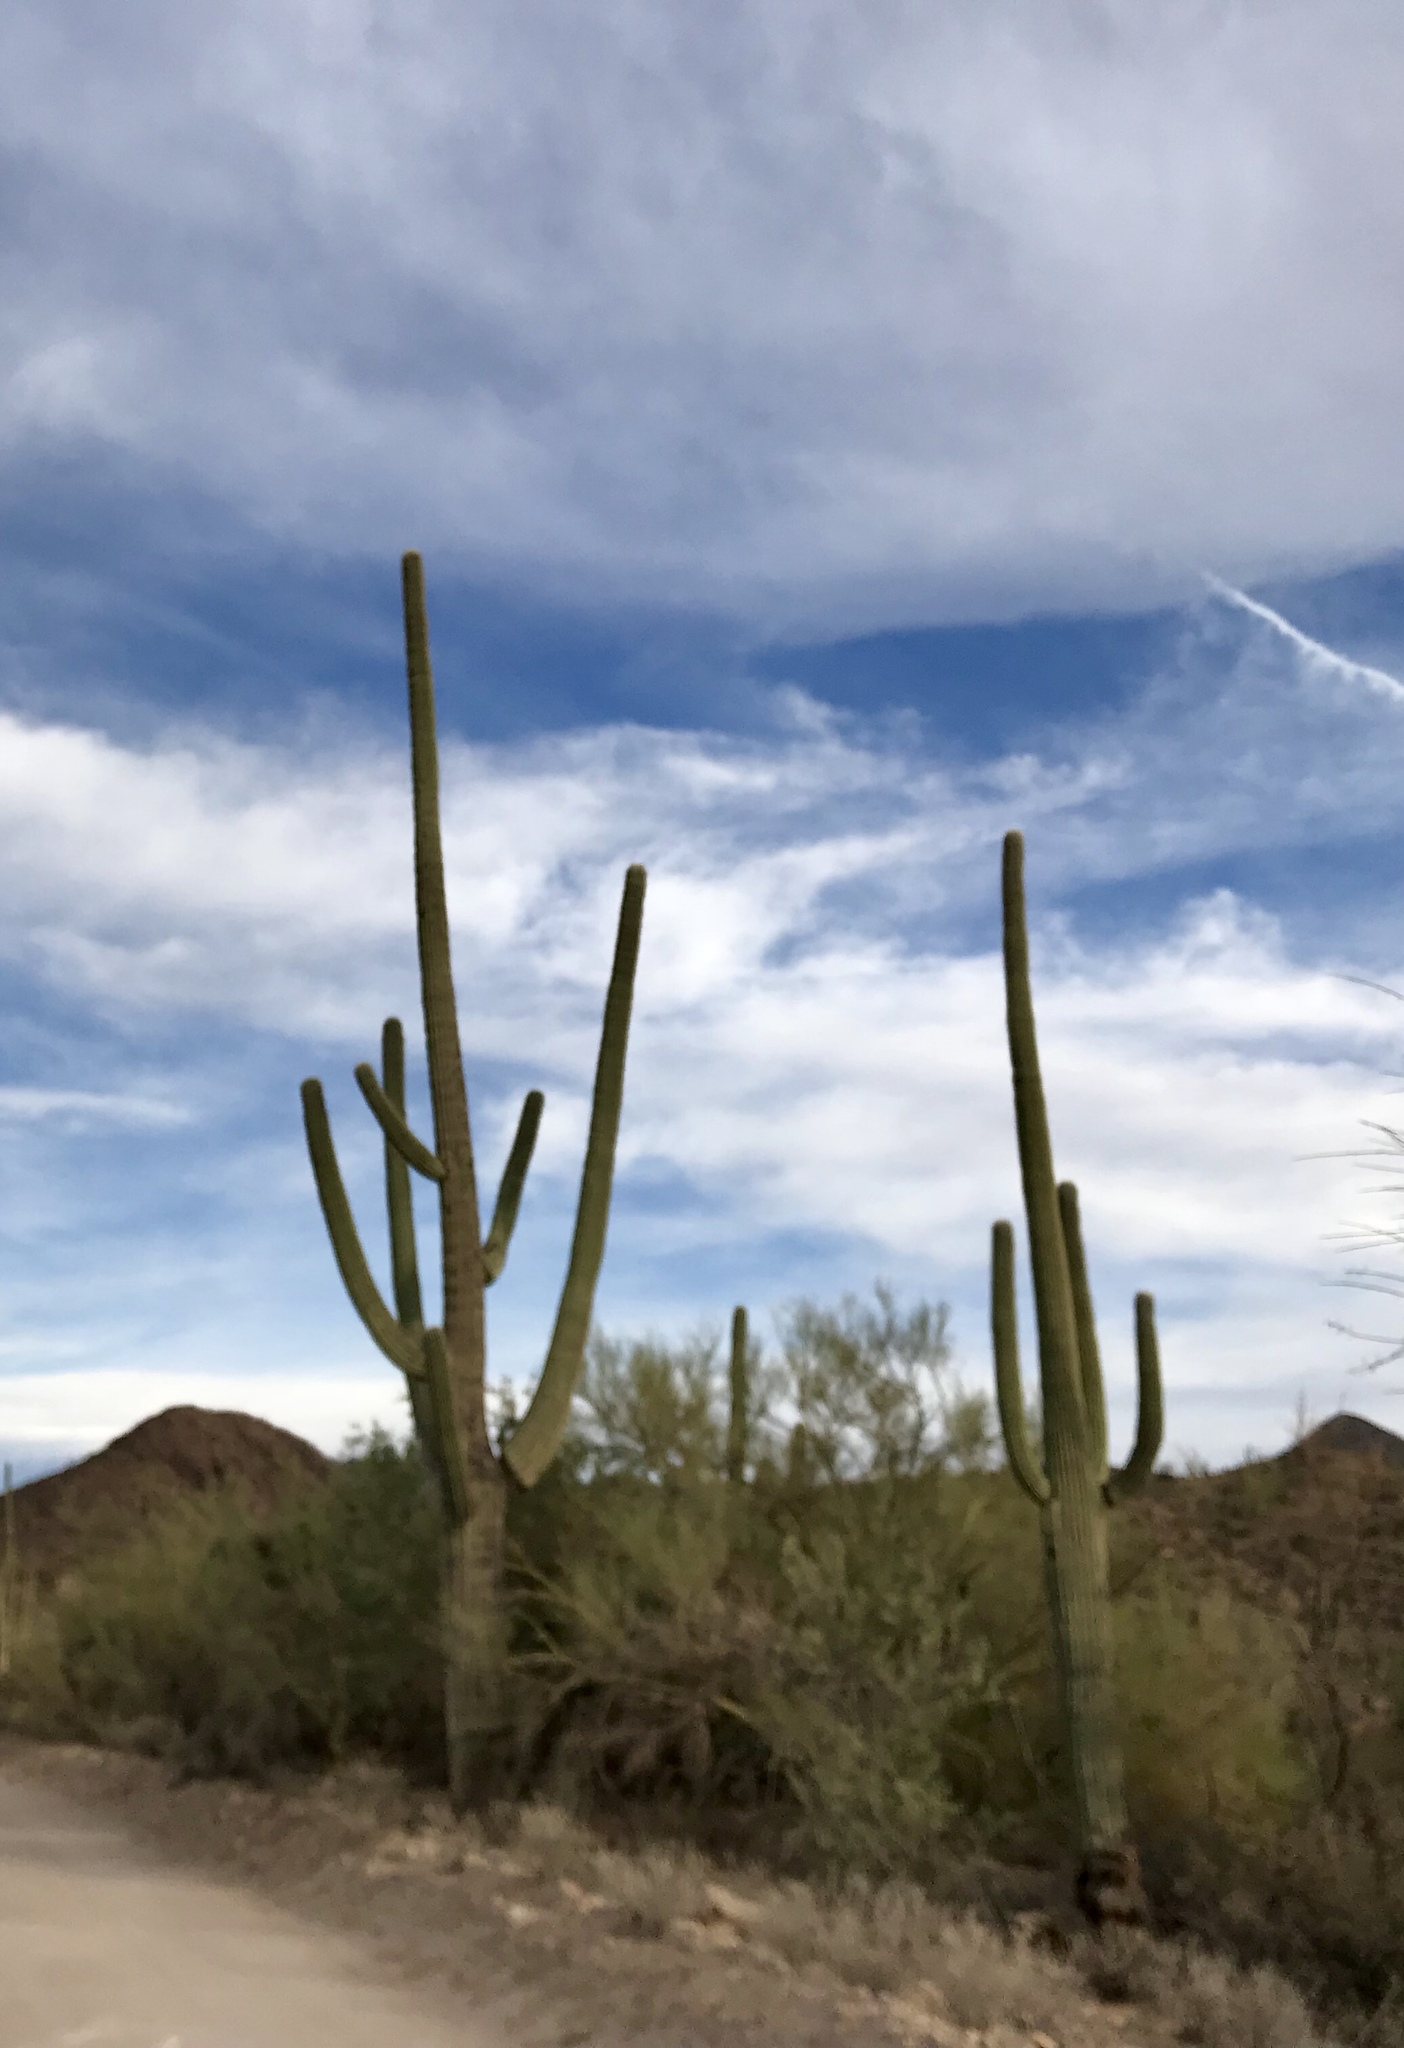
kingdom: Plantae
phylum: Tracheophyta
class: Magnoliopsida
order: Caryophyllales
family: Cactaceae
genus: Carnegiea
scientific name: Carnegiea gigantea
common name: Saguaro
